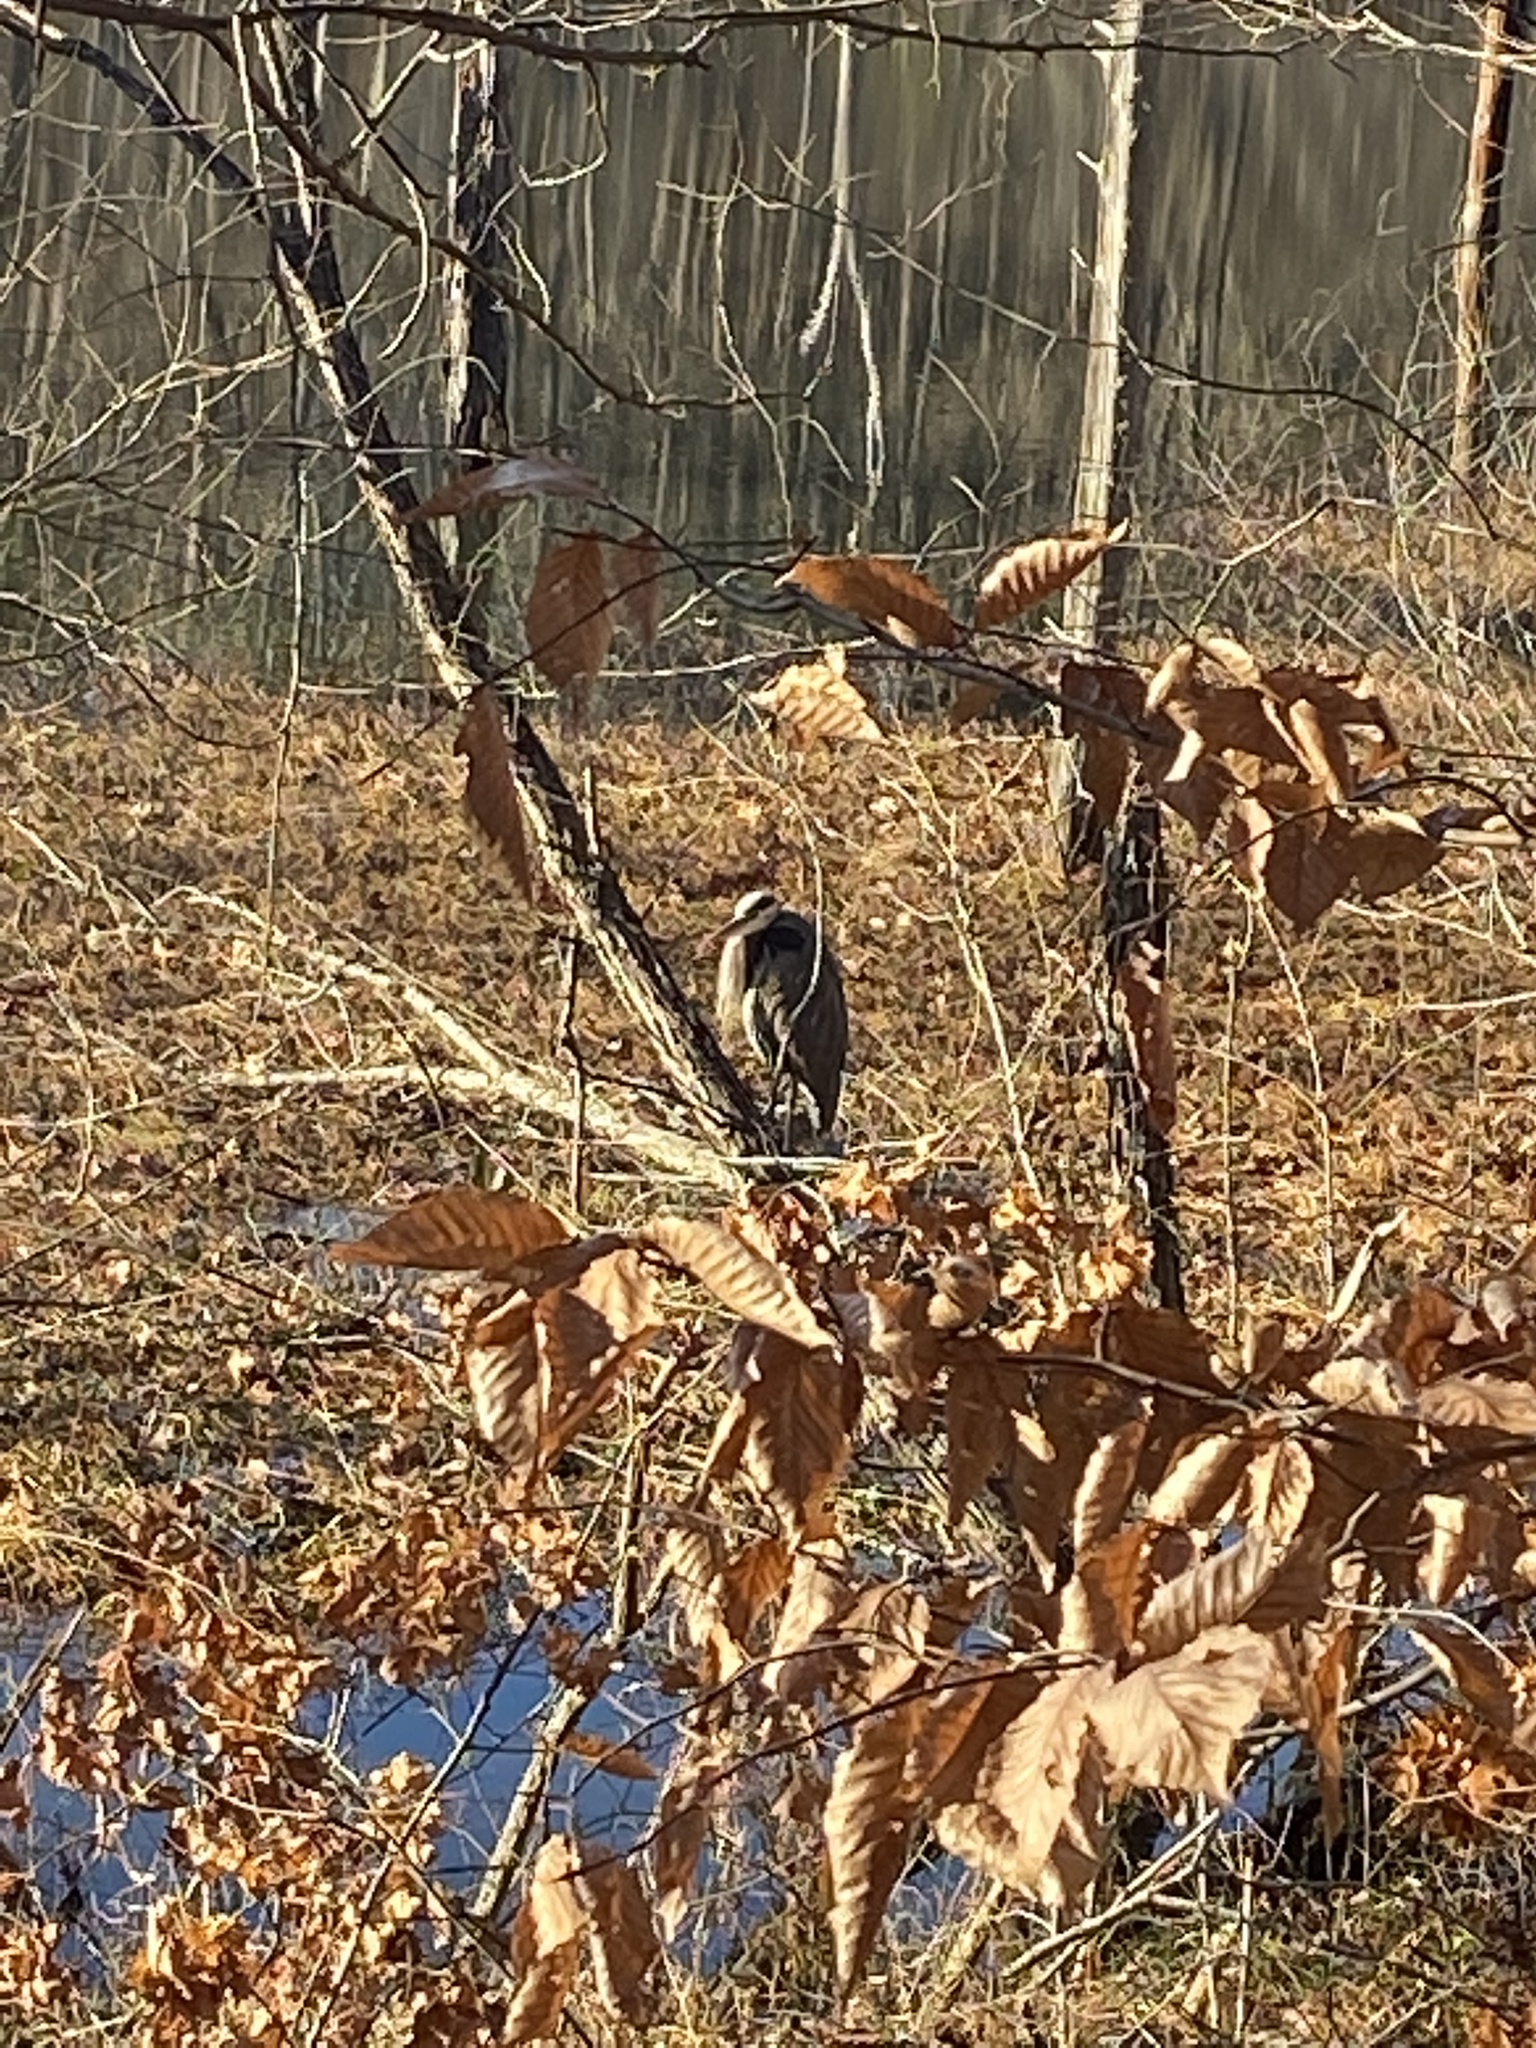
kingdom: Animalia
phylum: Chordata
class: Aves
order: Pelecaniformes
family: Ardeidae
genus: Ardea
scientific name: Ardea herodias
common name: Great blue heron
